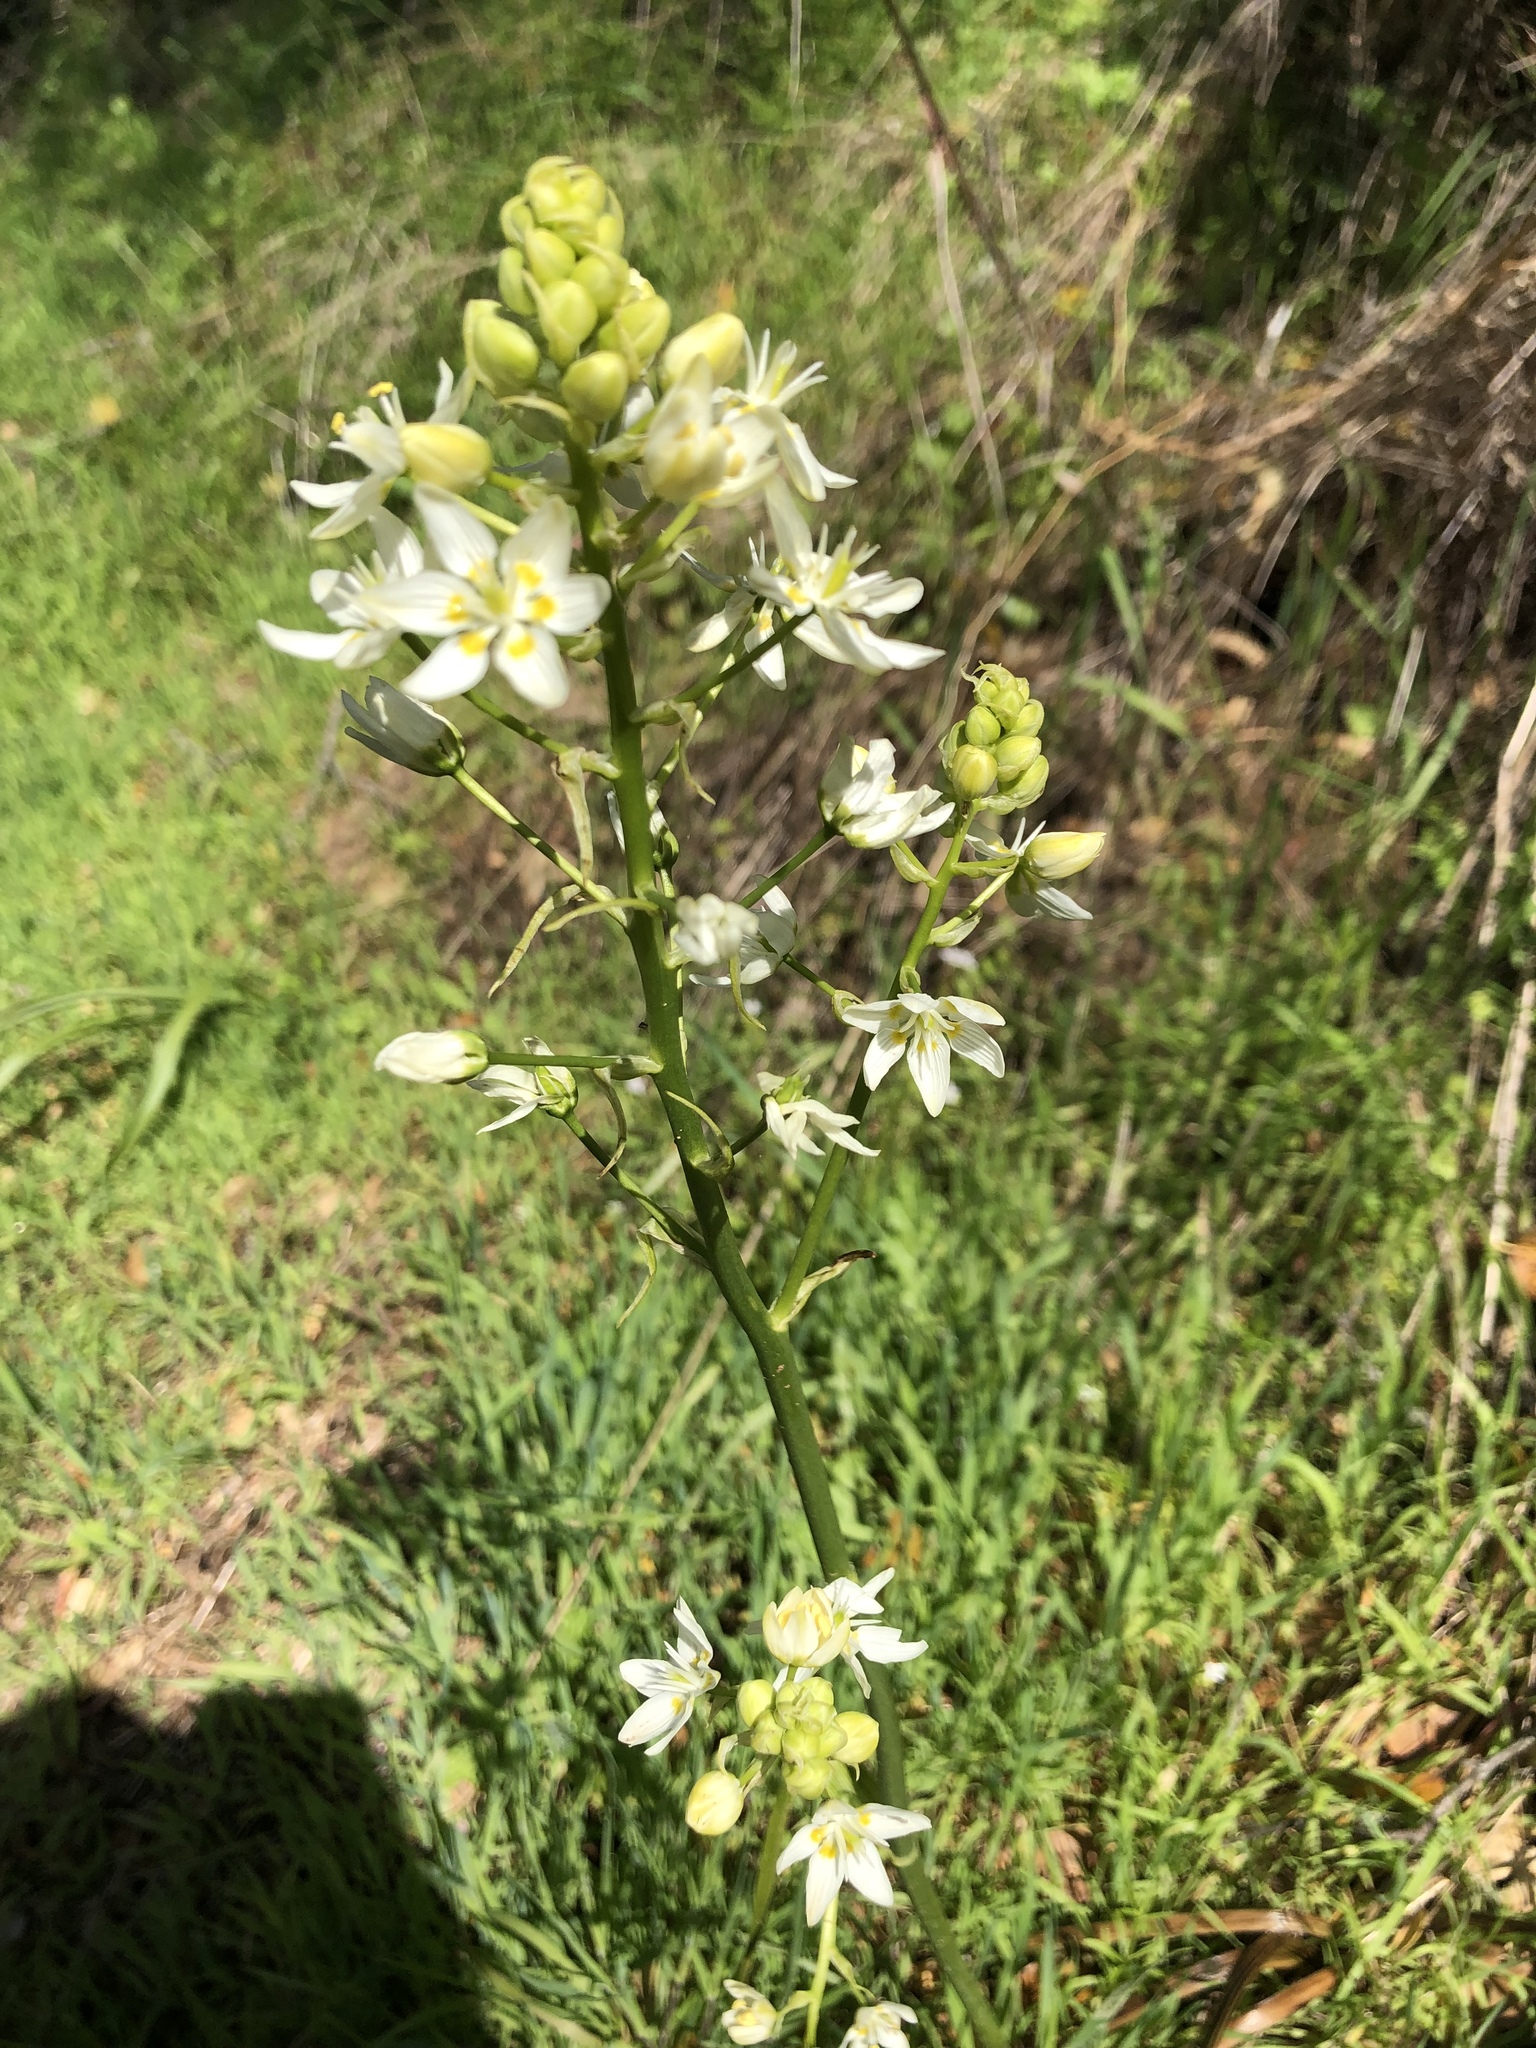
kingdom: Plantae
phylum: Tracheophyta
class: Liliopsida
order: Liliales
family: Melanthiaceae
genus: Toxicoscordion
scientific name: Toxicoscordion fremontii
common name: Fremont's death camas
